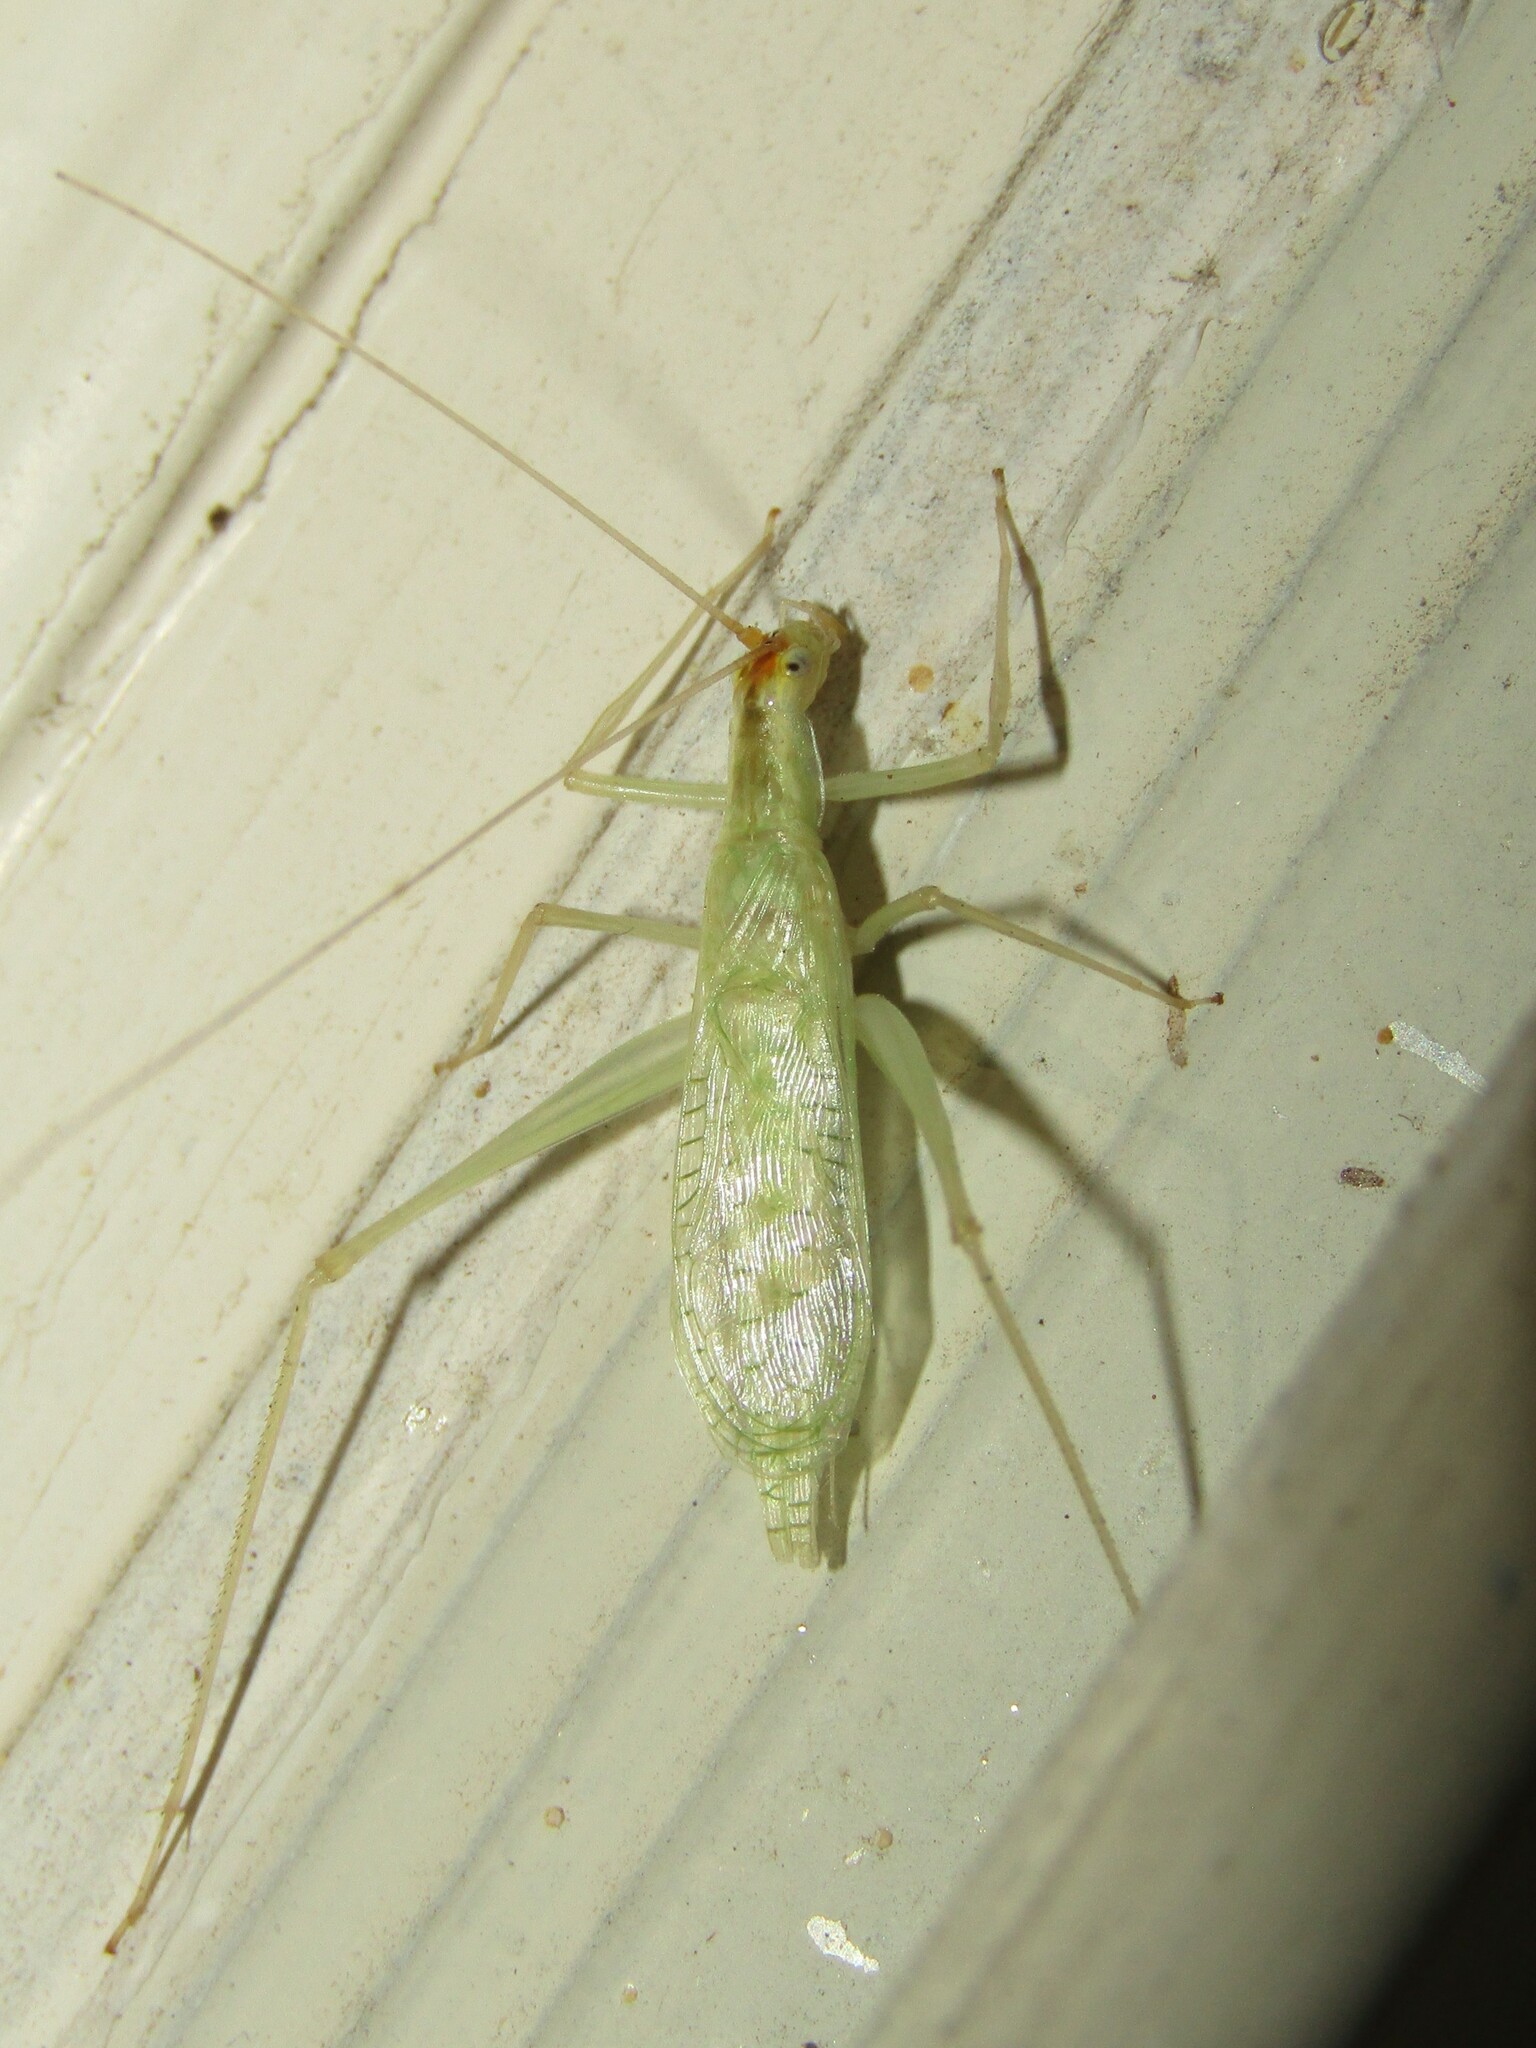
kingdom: Animalia
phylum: Arthropoda
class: Insecta
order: Orthoptera
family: Gryllidae
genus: Oecanthus
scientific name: Oecanthus niveus
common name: Narrow-winged tree cricket
